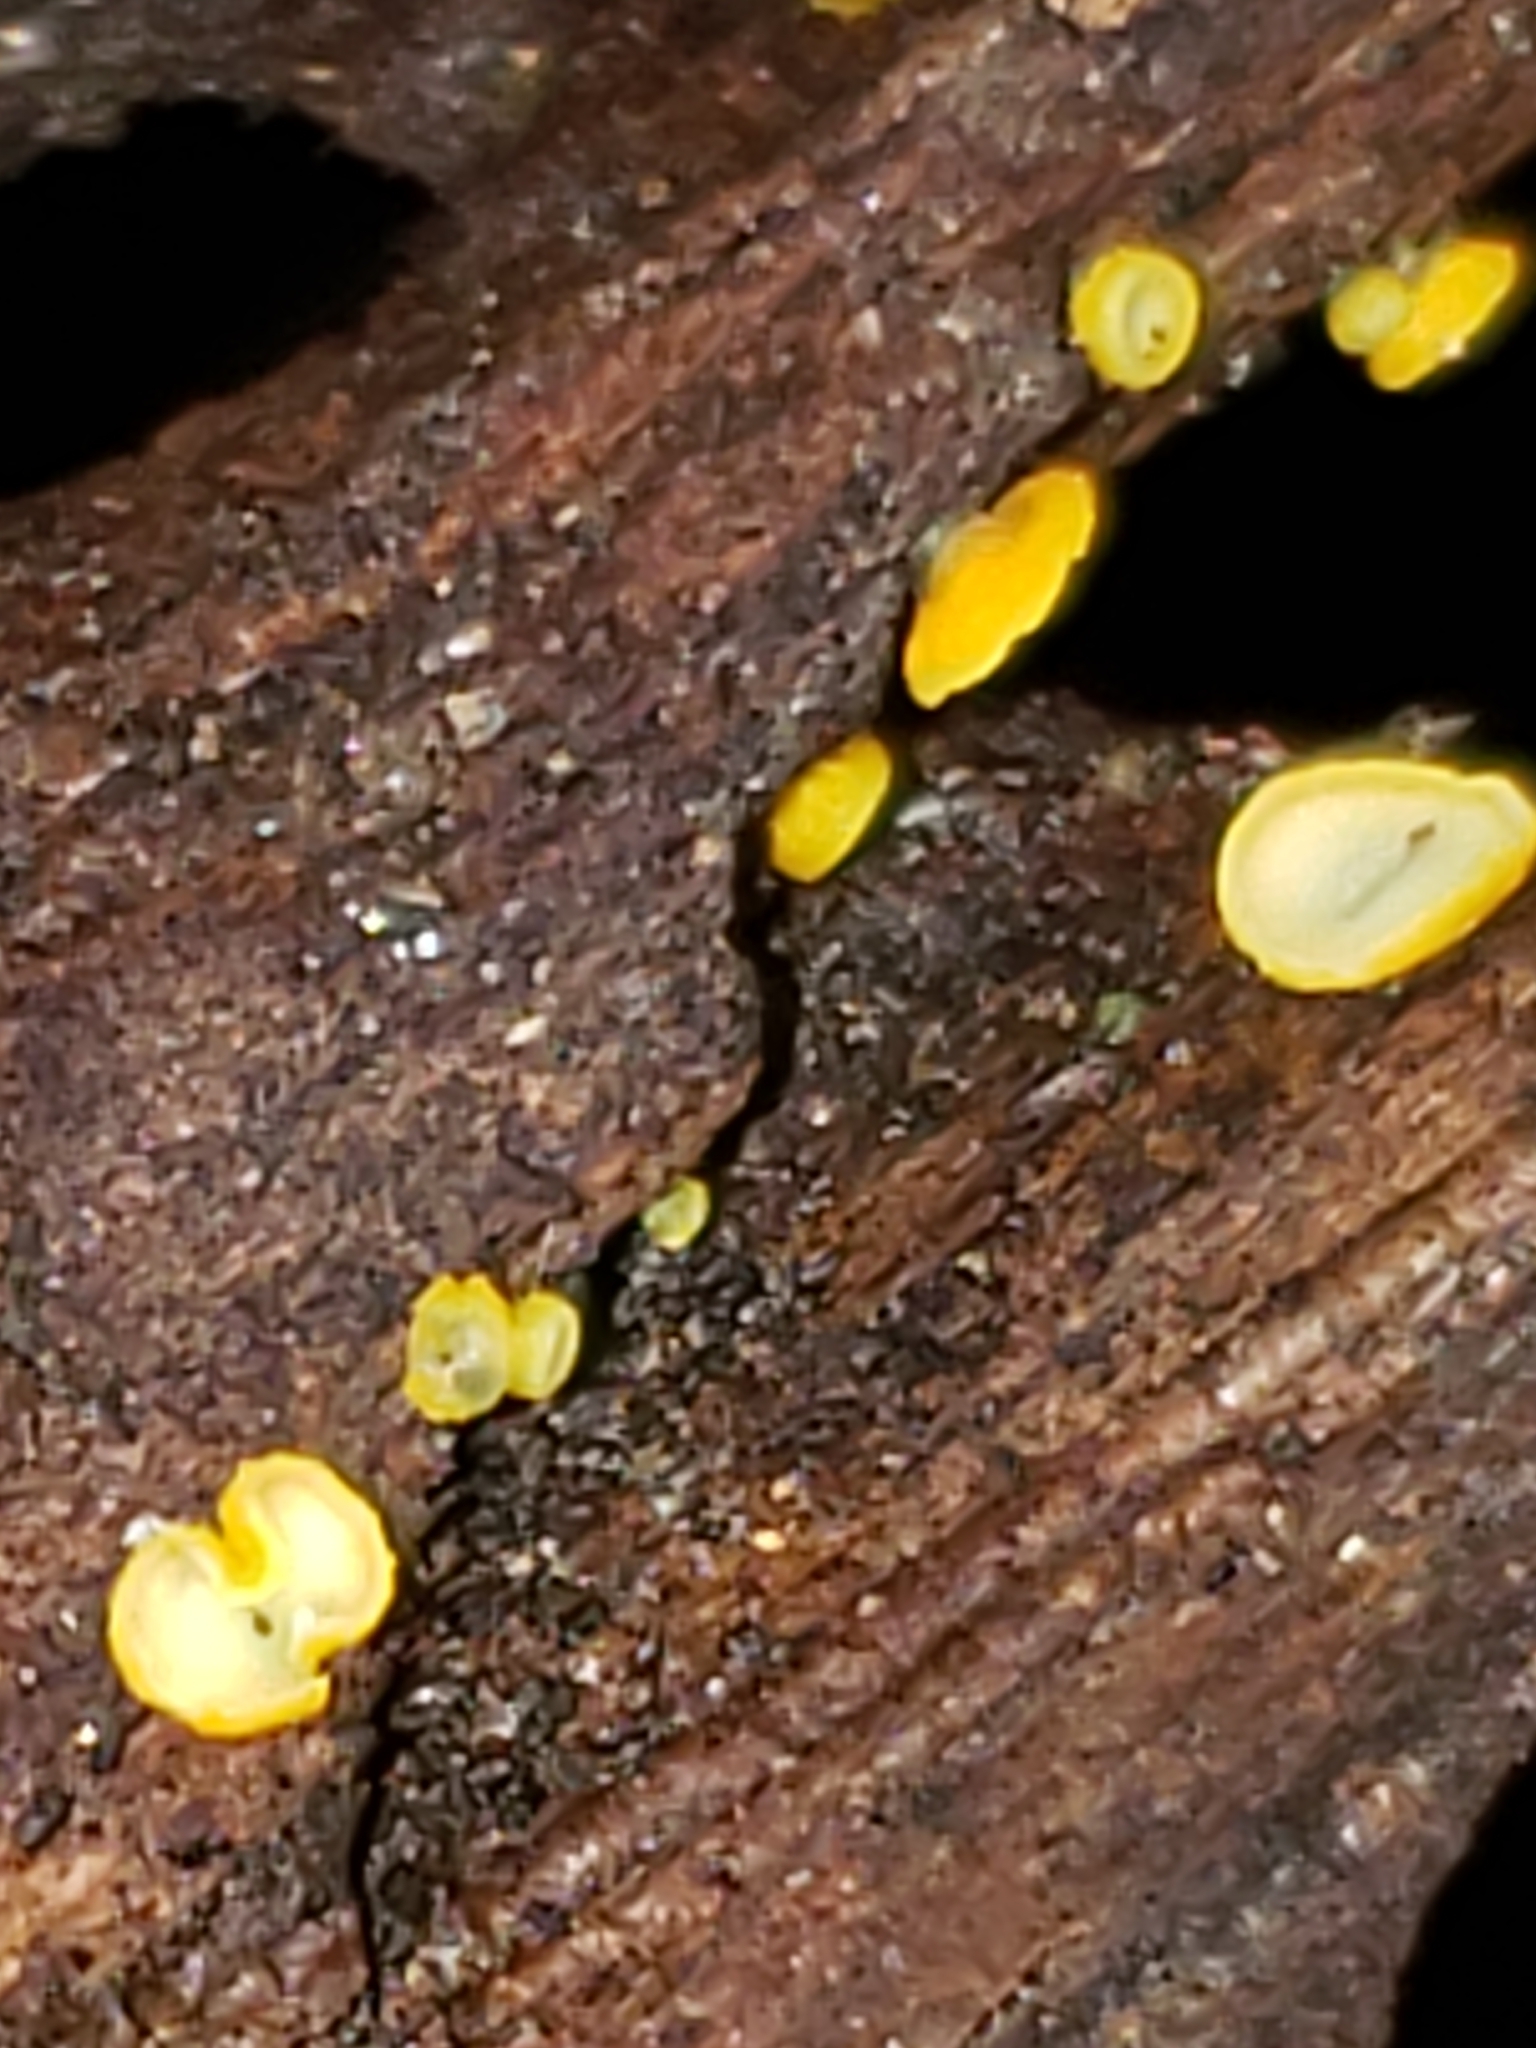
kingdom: Fungi
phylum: Ascomycota
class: Leotiomycetes
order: Helotiales
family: Pezizellaceae
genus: Calycina
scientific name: Calycina citrina
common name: Yellow fairy cups
